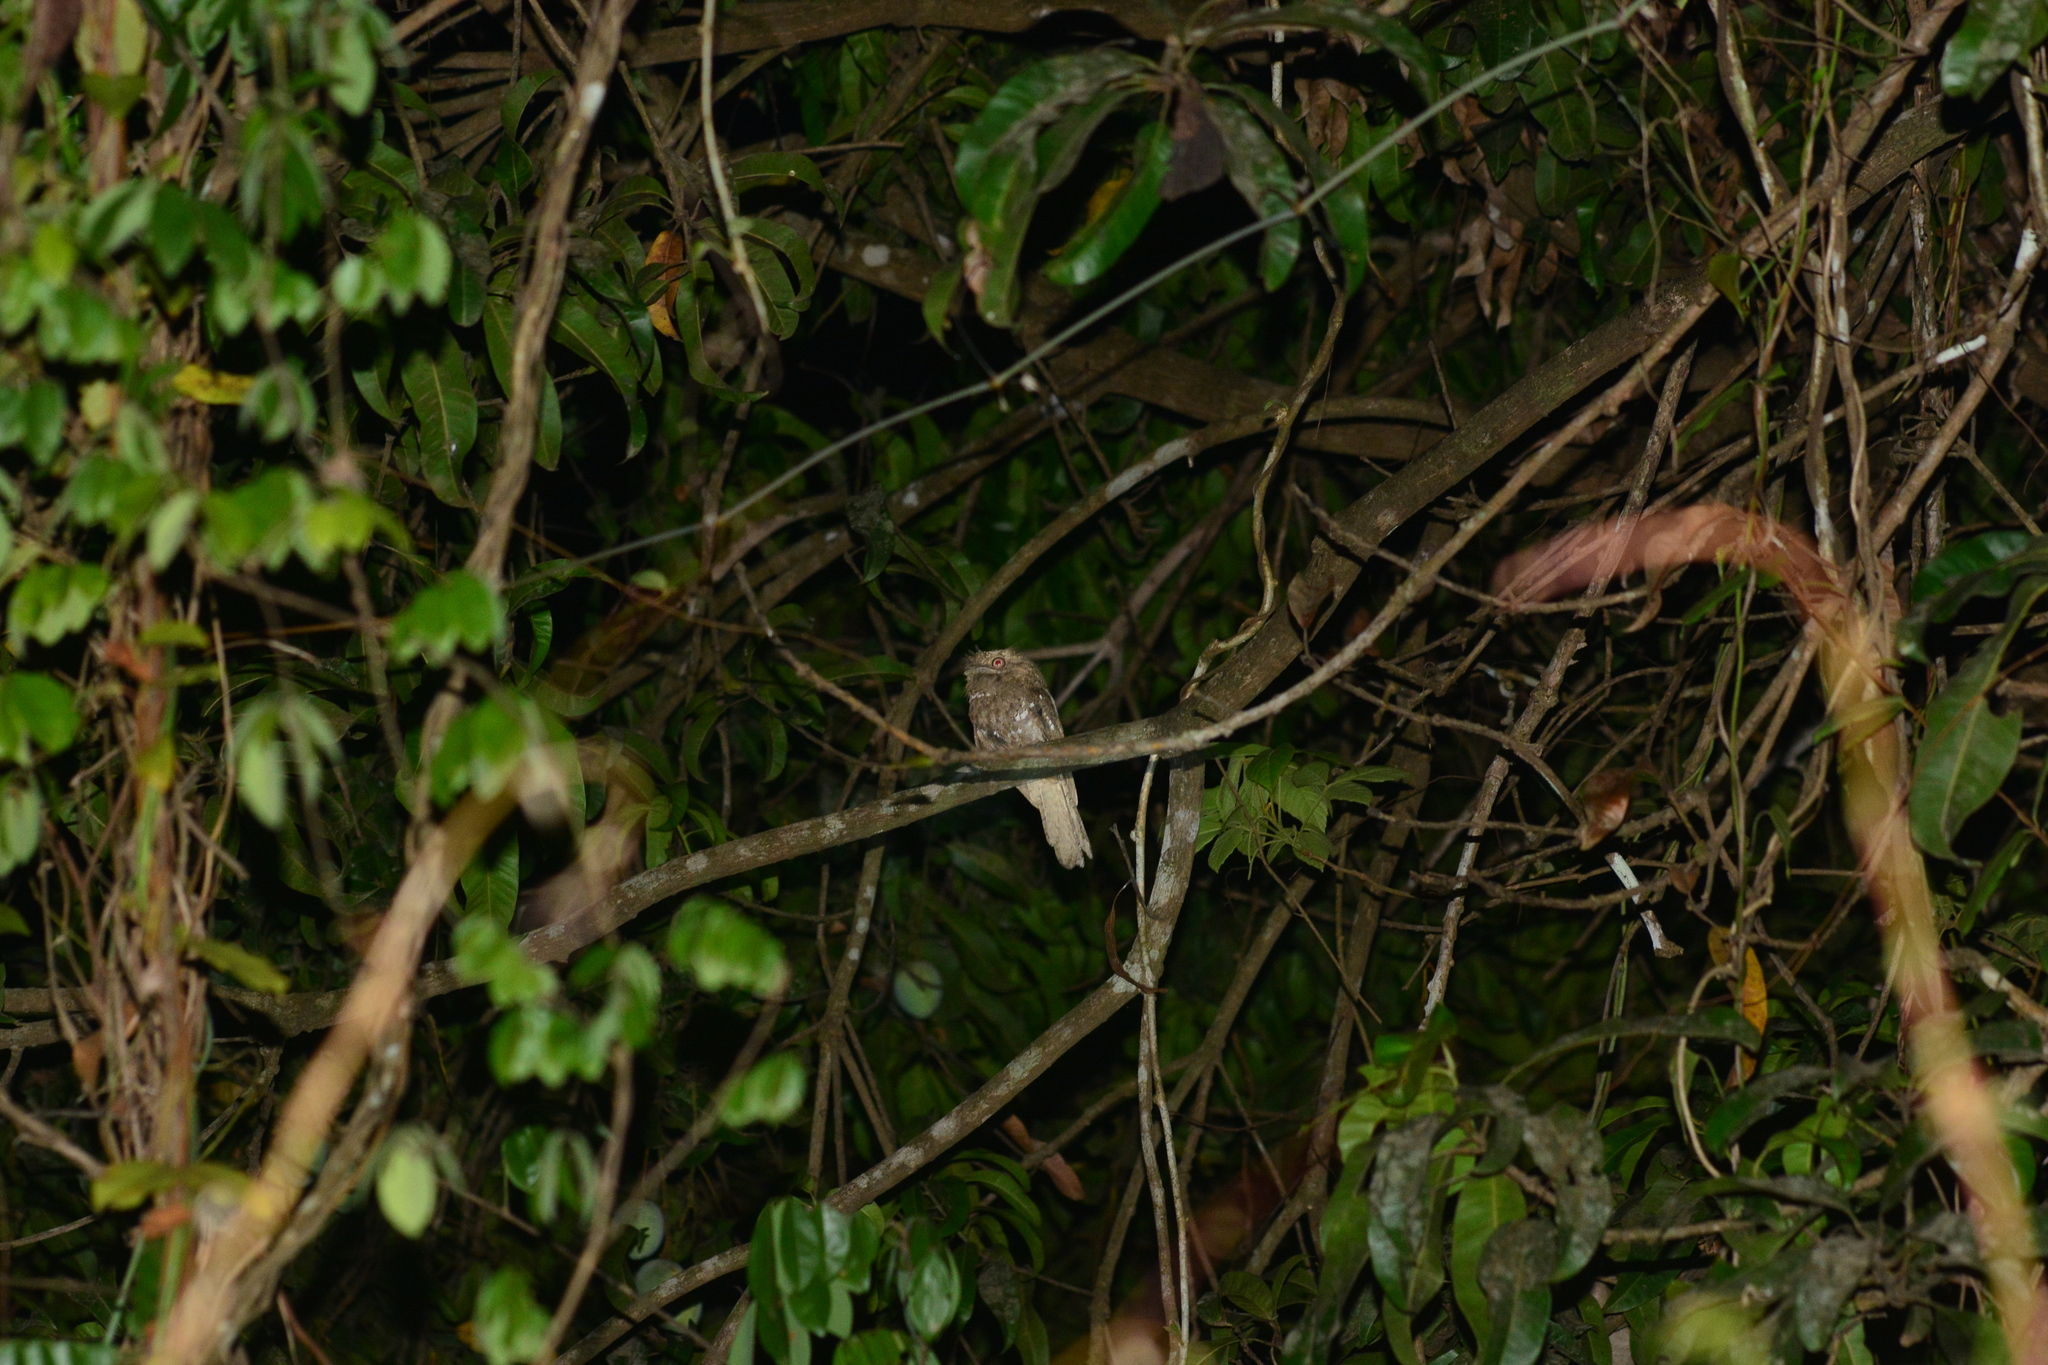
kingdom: Animalia
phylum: Chordata
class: Aves
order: Caprimulgiformes
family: Podargidae
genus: Batrachostomus
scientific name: Batrachostomus moniliger
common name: Sri lanka frogmouth
